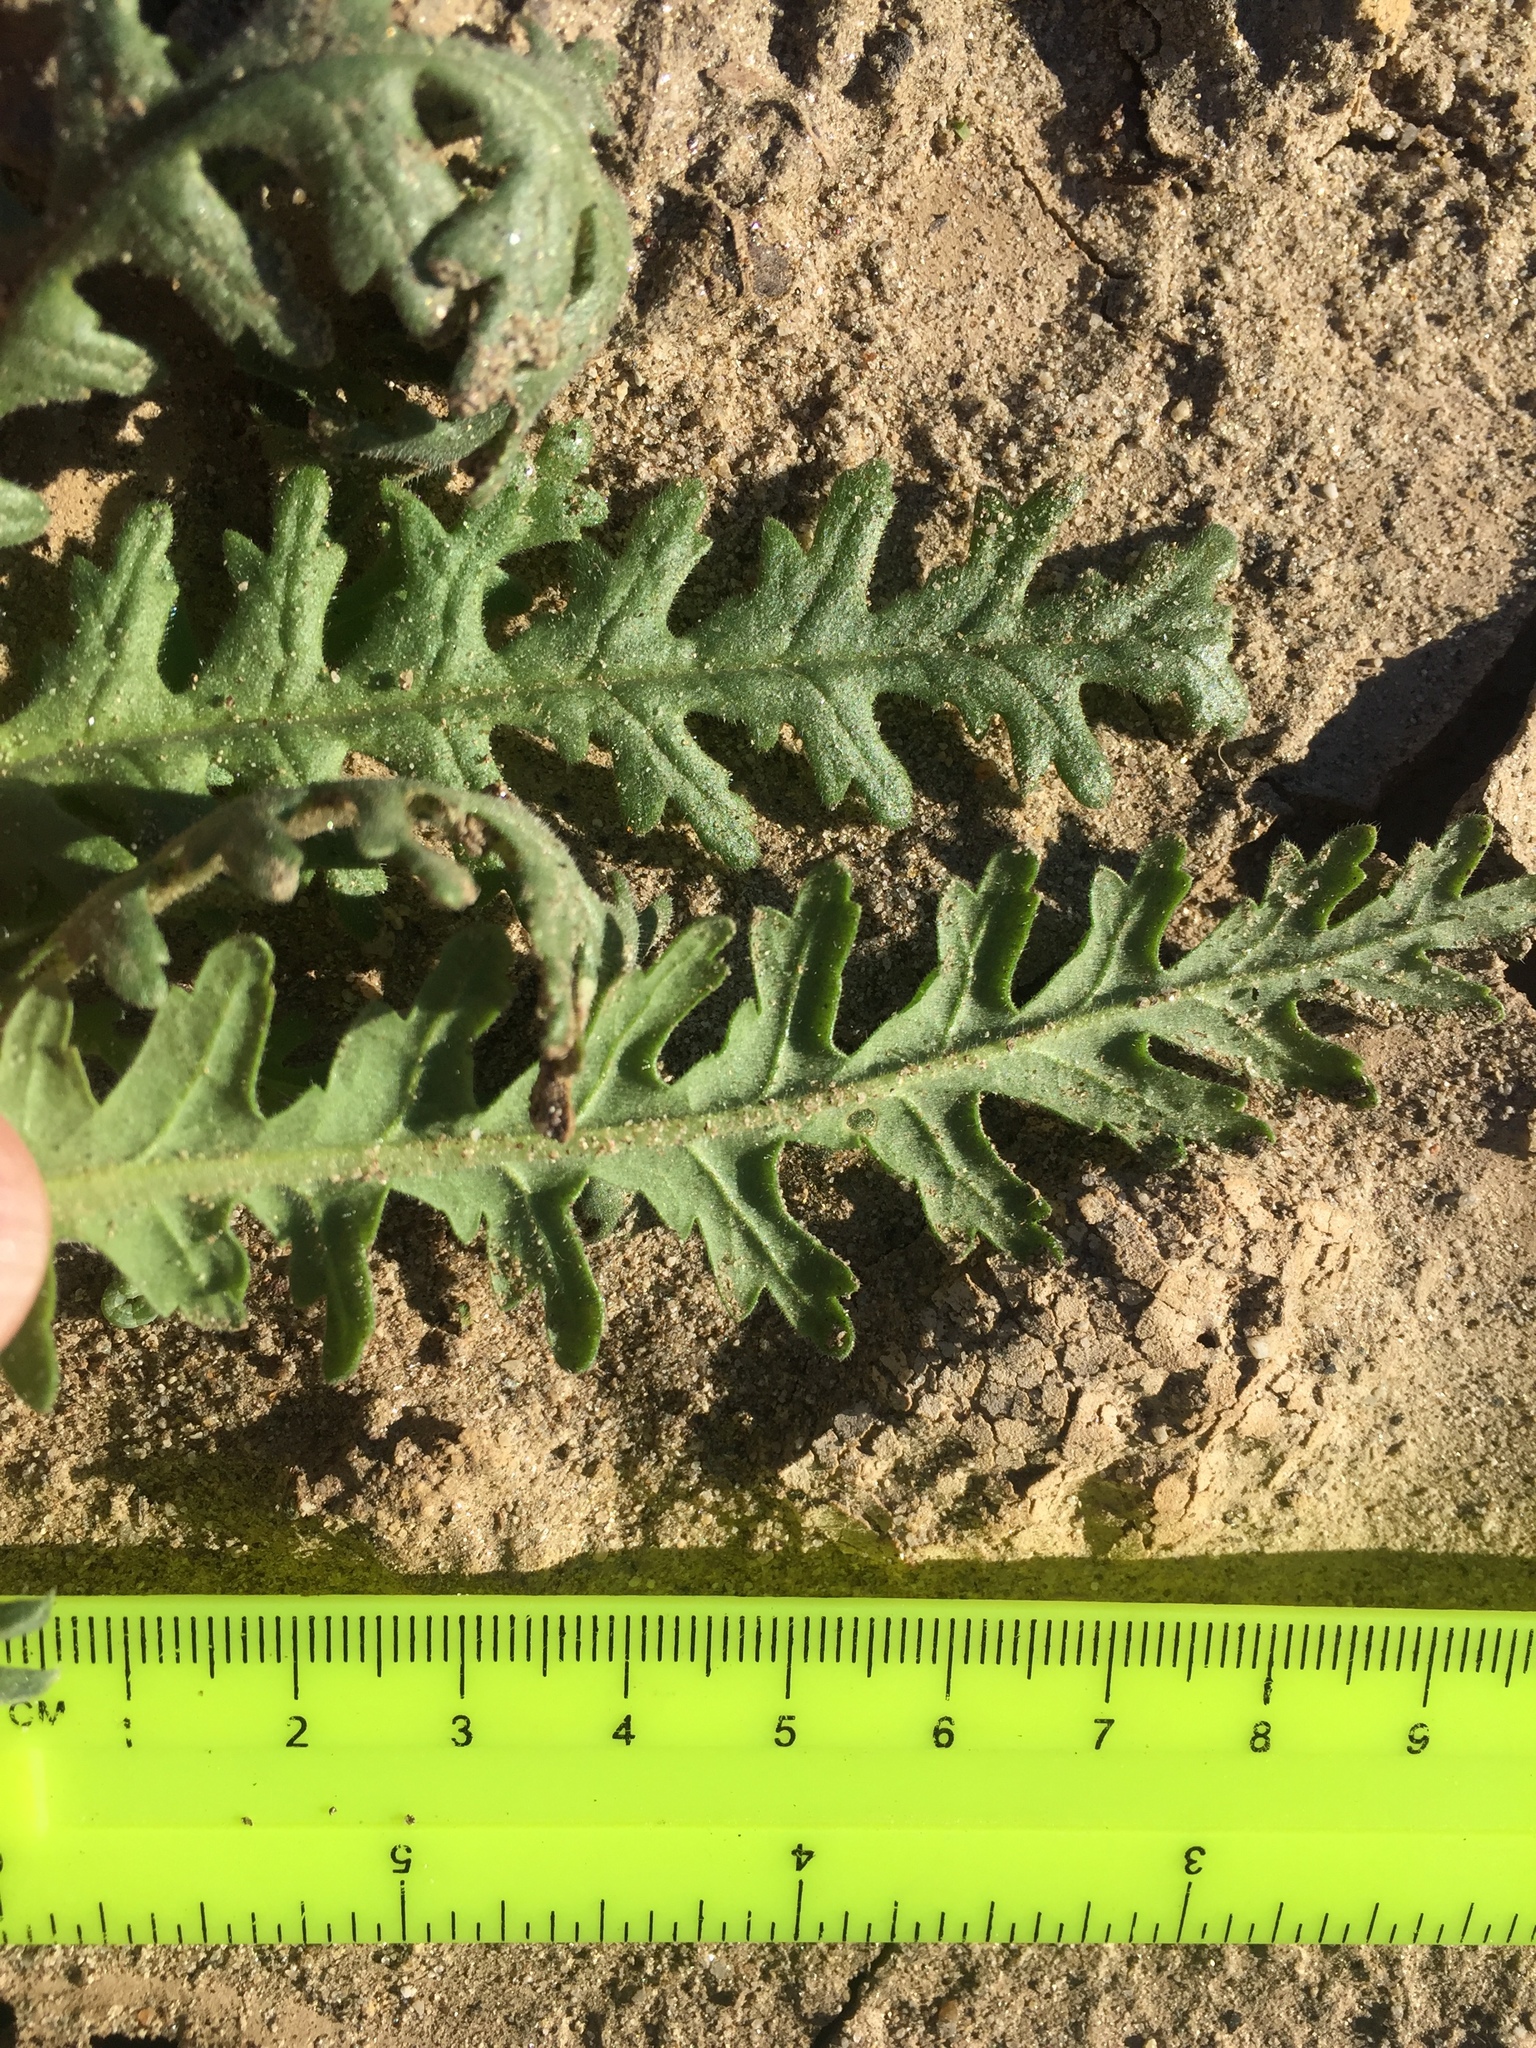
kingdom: Plantae
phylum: Tracheophyta
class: Magnoliopsida
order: Boraginales
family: Hydrophyllaceae
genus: Emmenanthe
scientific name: Emmenanthe penduliflora
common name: Whispering-bells
